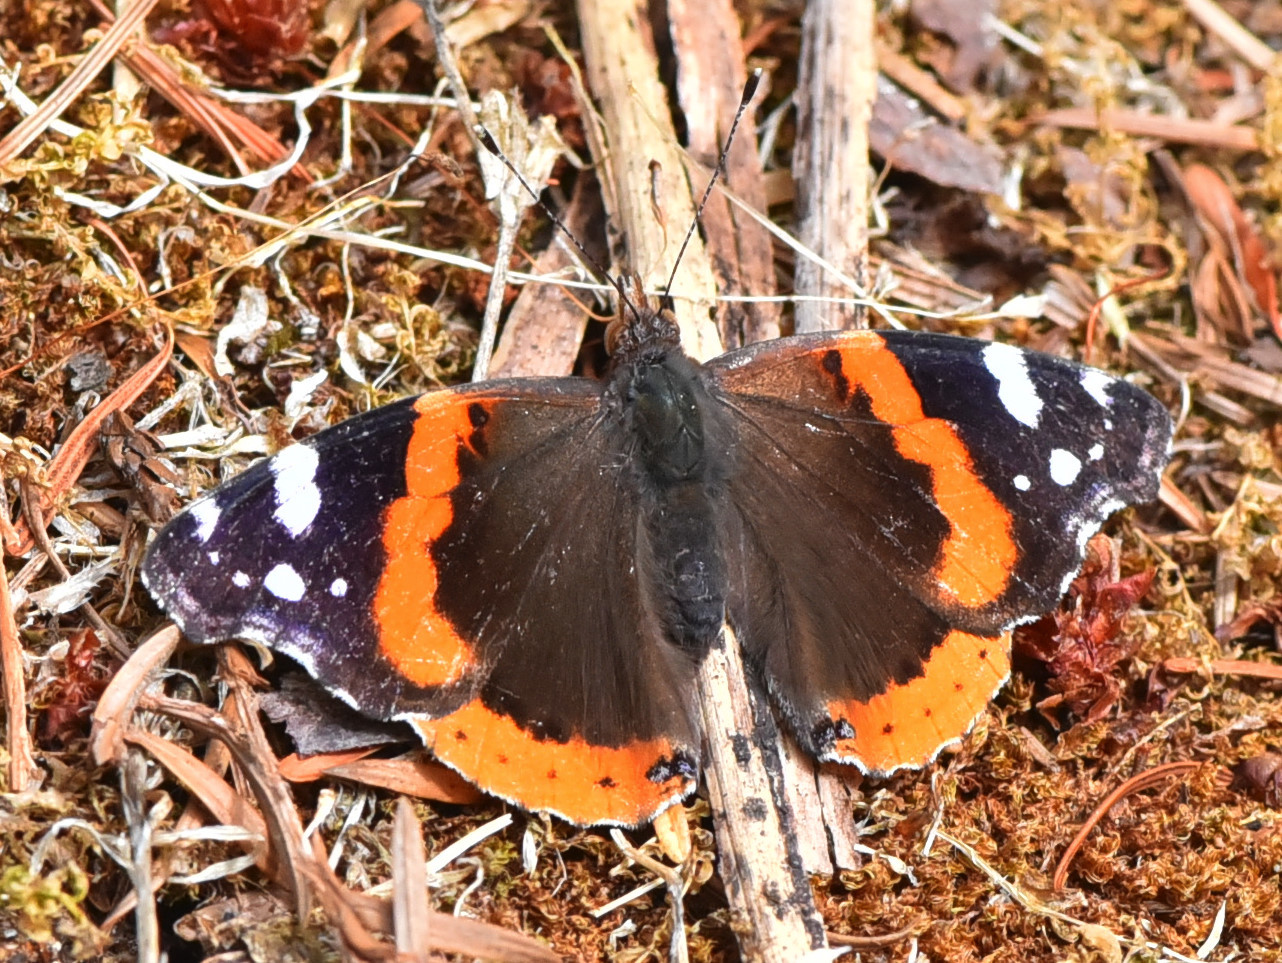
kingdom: Animalia
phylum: Arthropoda
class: Insecta
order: Lepidoptera
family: Nymphalidae
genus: Vanessa
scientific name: Vanessa atalanta
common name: Red admiral
